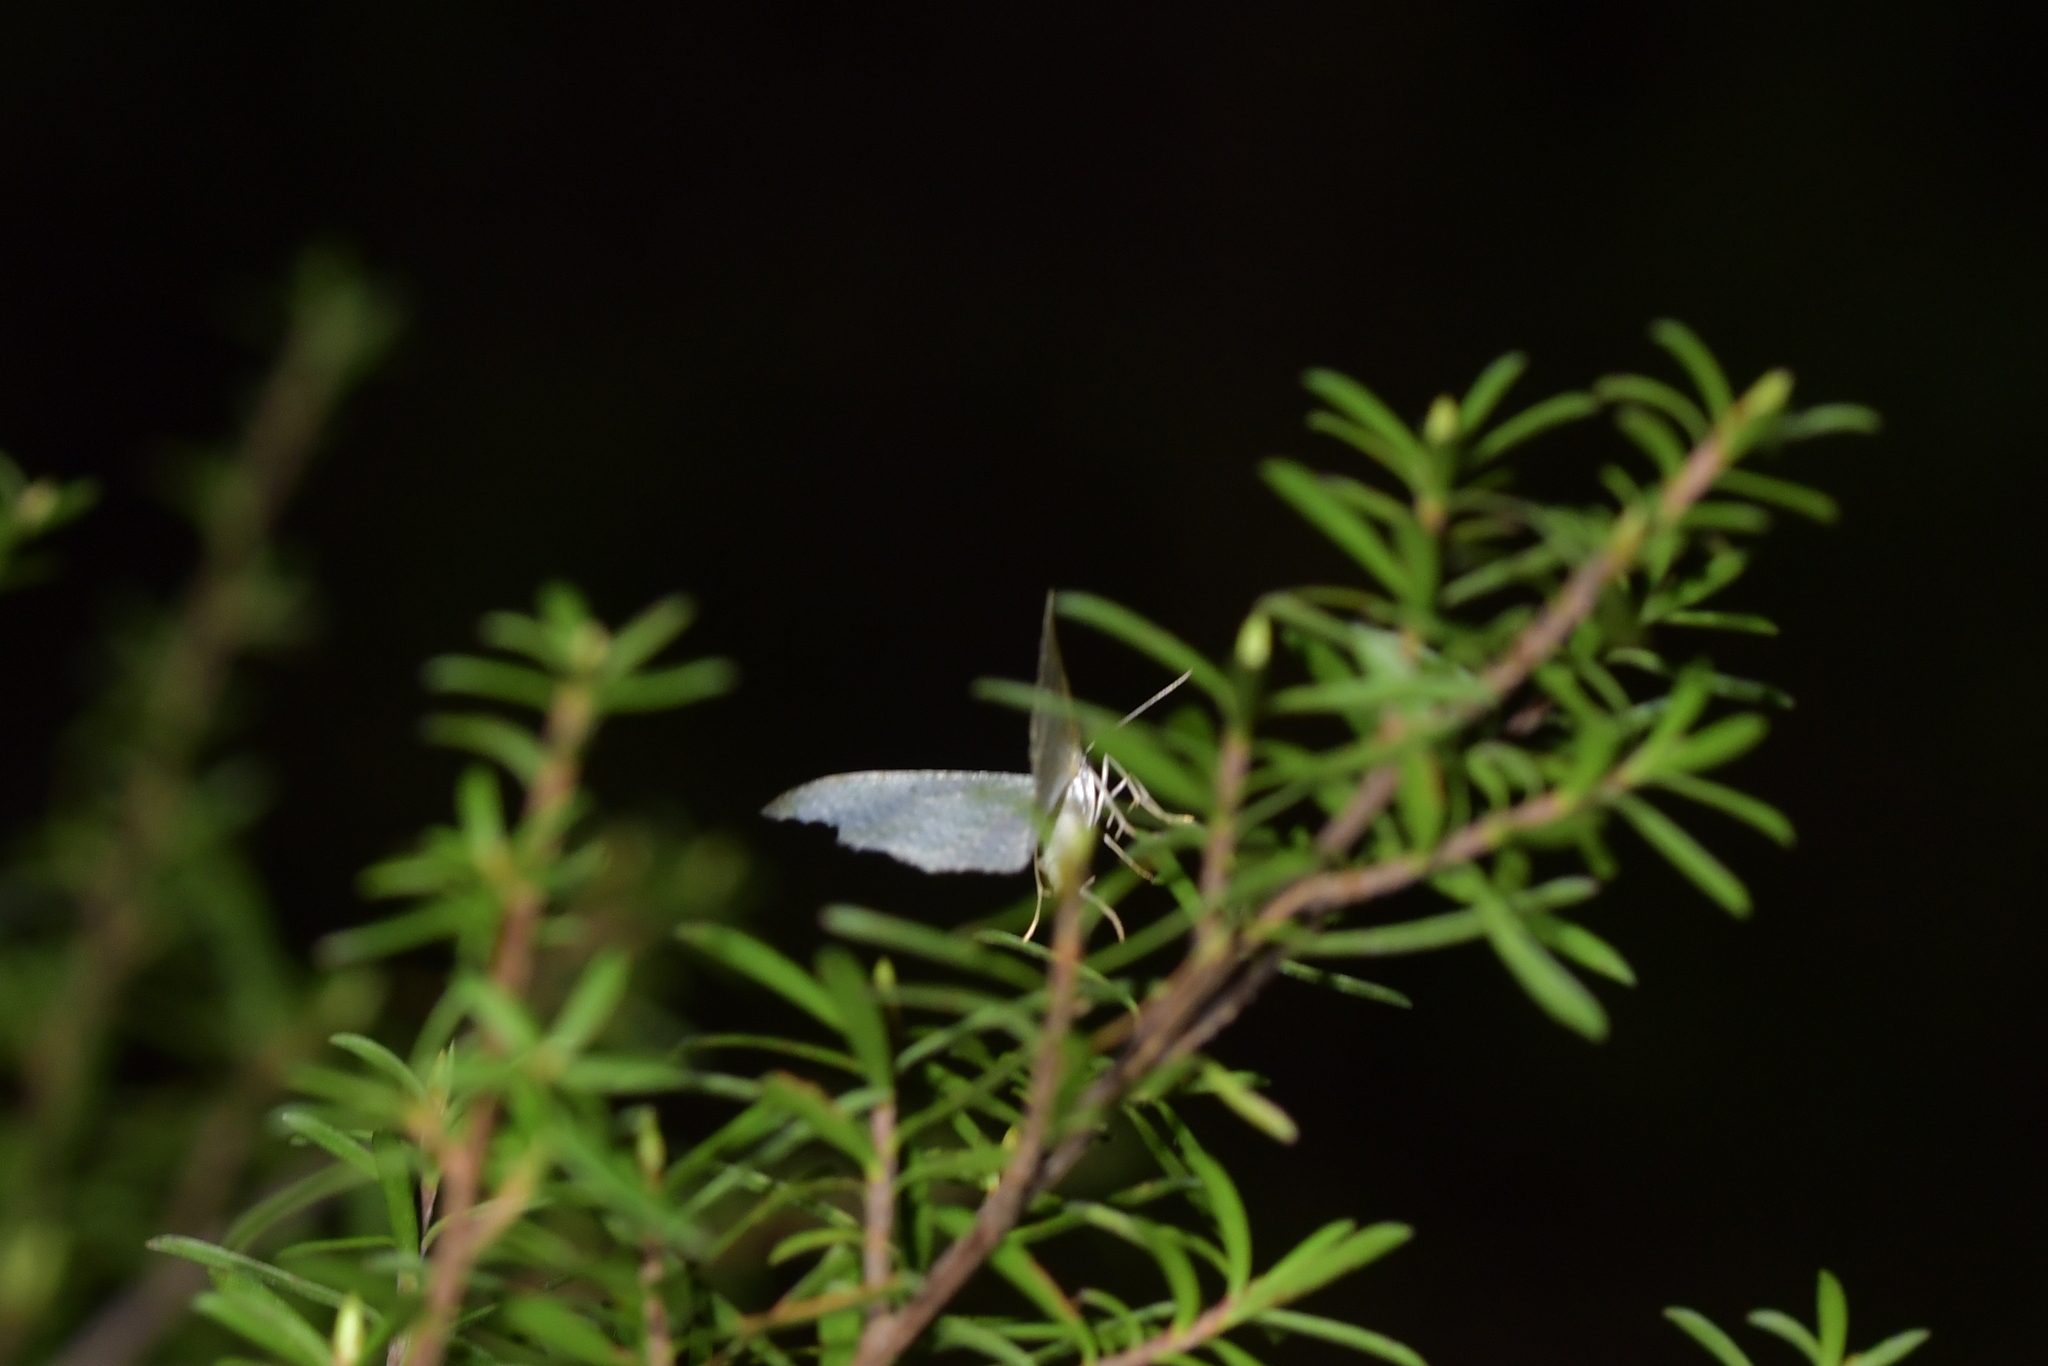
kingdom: Animalia
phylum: Arthropoda
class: Insecta
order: Lepidoptera
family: Geometridae
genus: Poecilasthena
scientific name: Poecilasthena pulchraria
